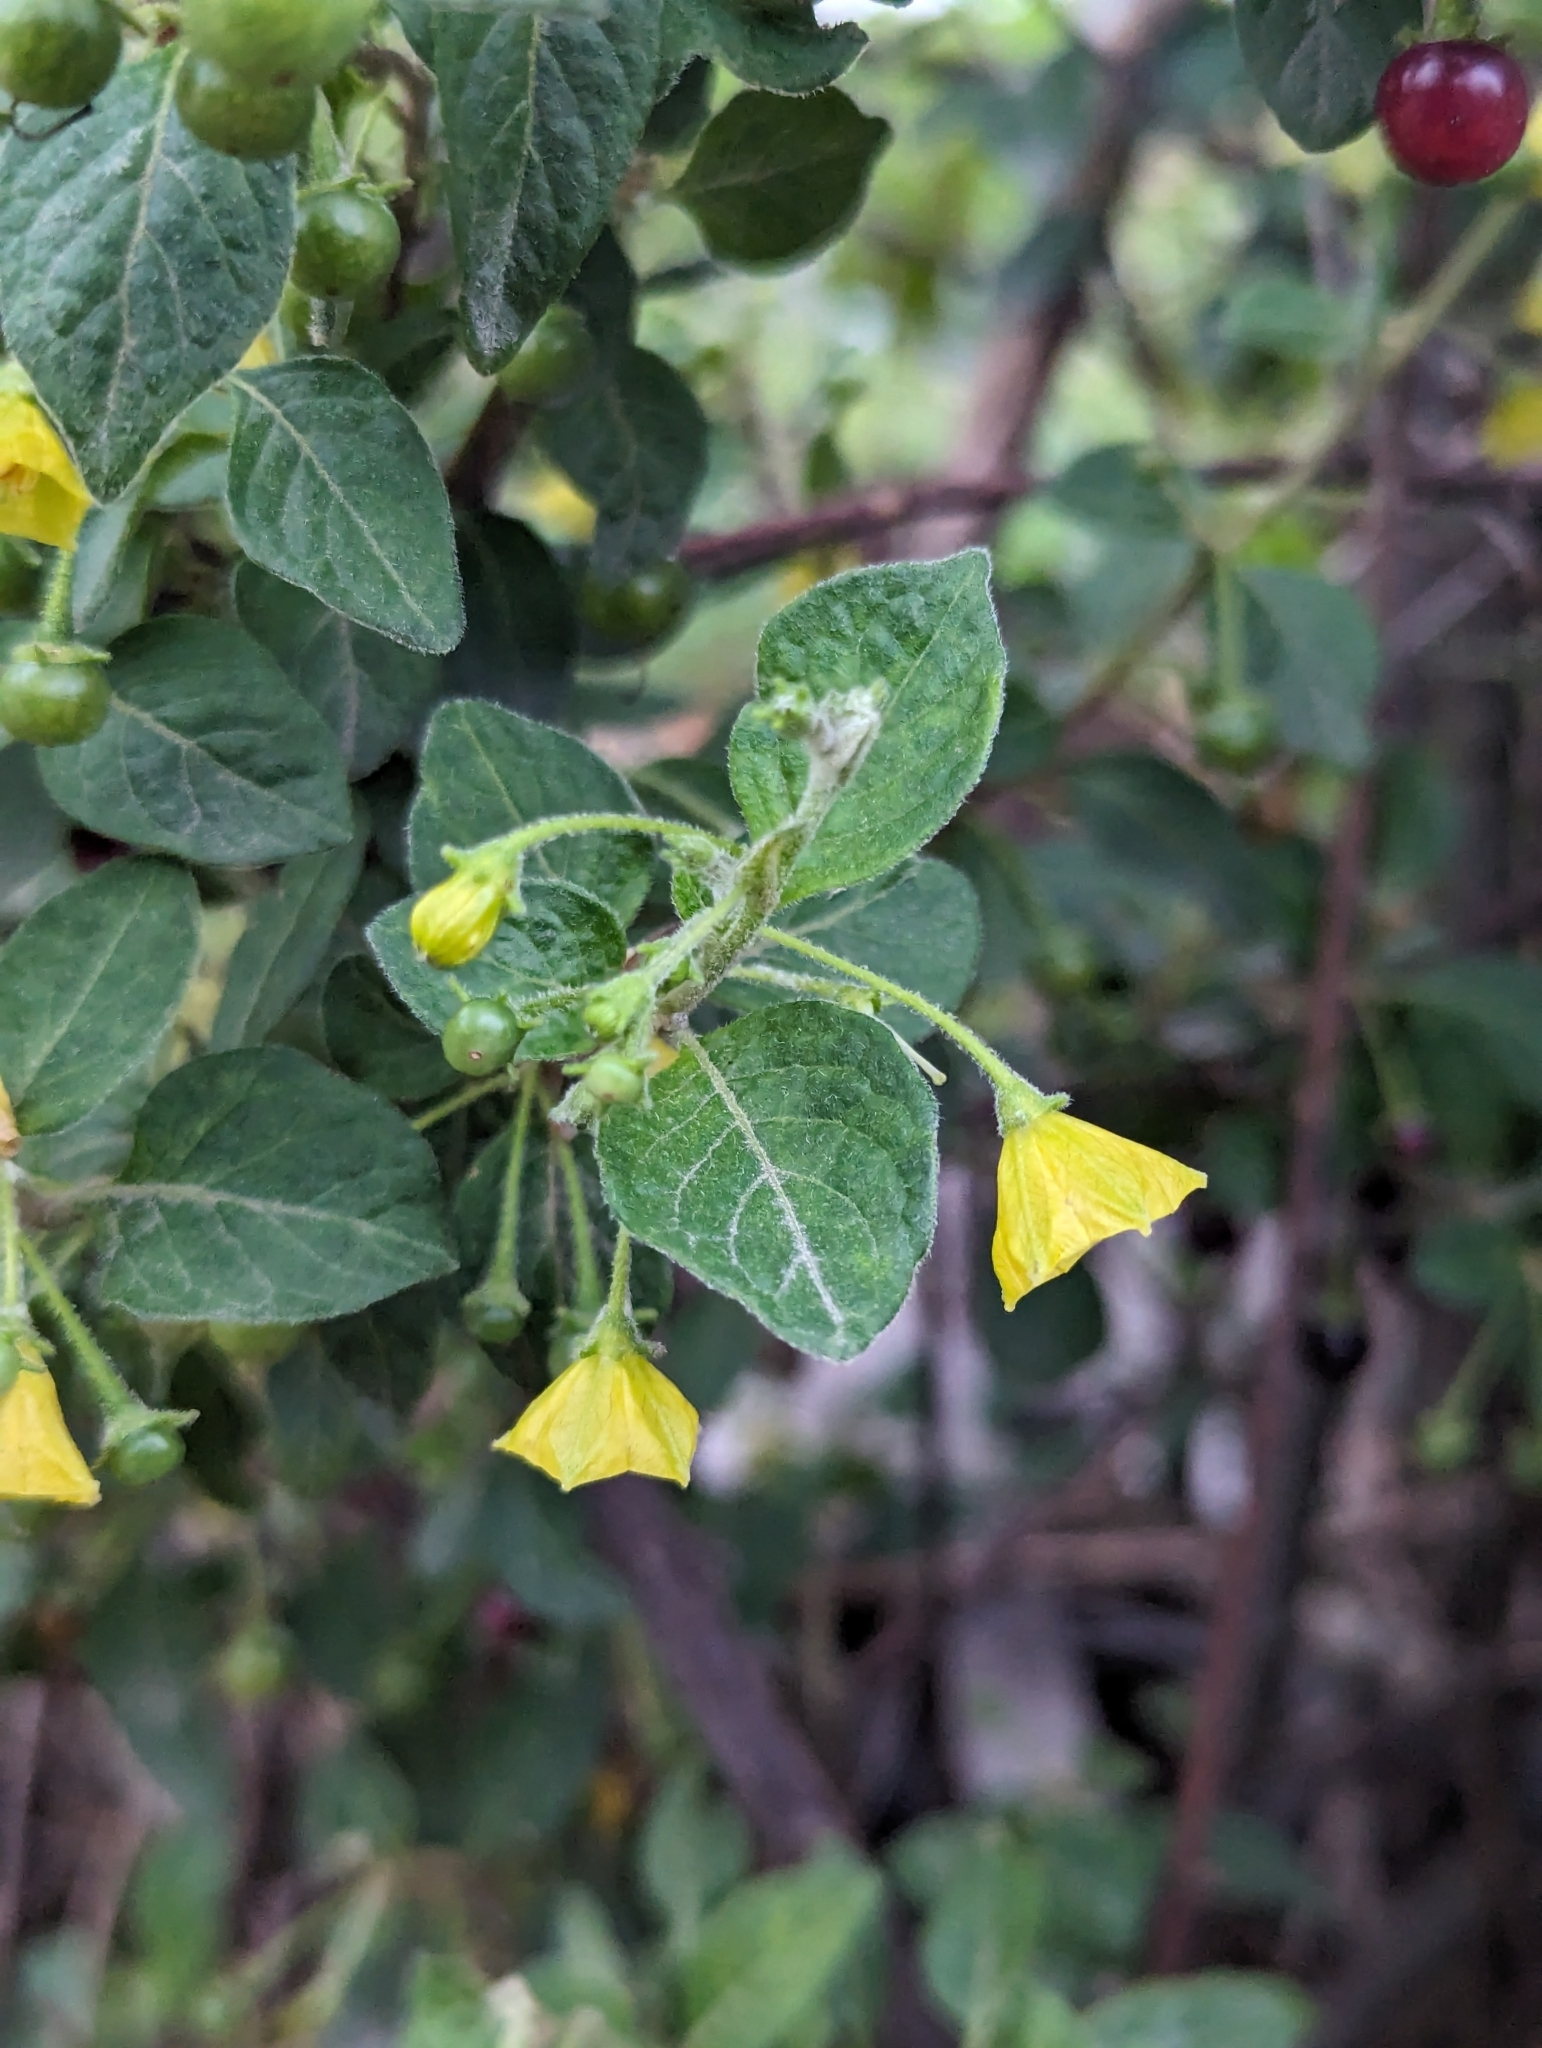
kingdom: Plantae
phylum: Tracheophyta
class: Magnoliopsida
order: Solanales
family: Solanaceae
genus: Capsicum
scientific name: Capsicum rhomboideum
